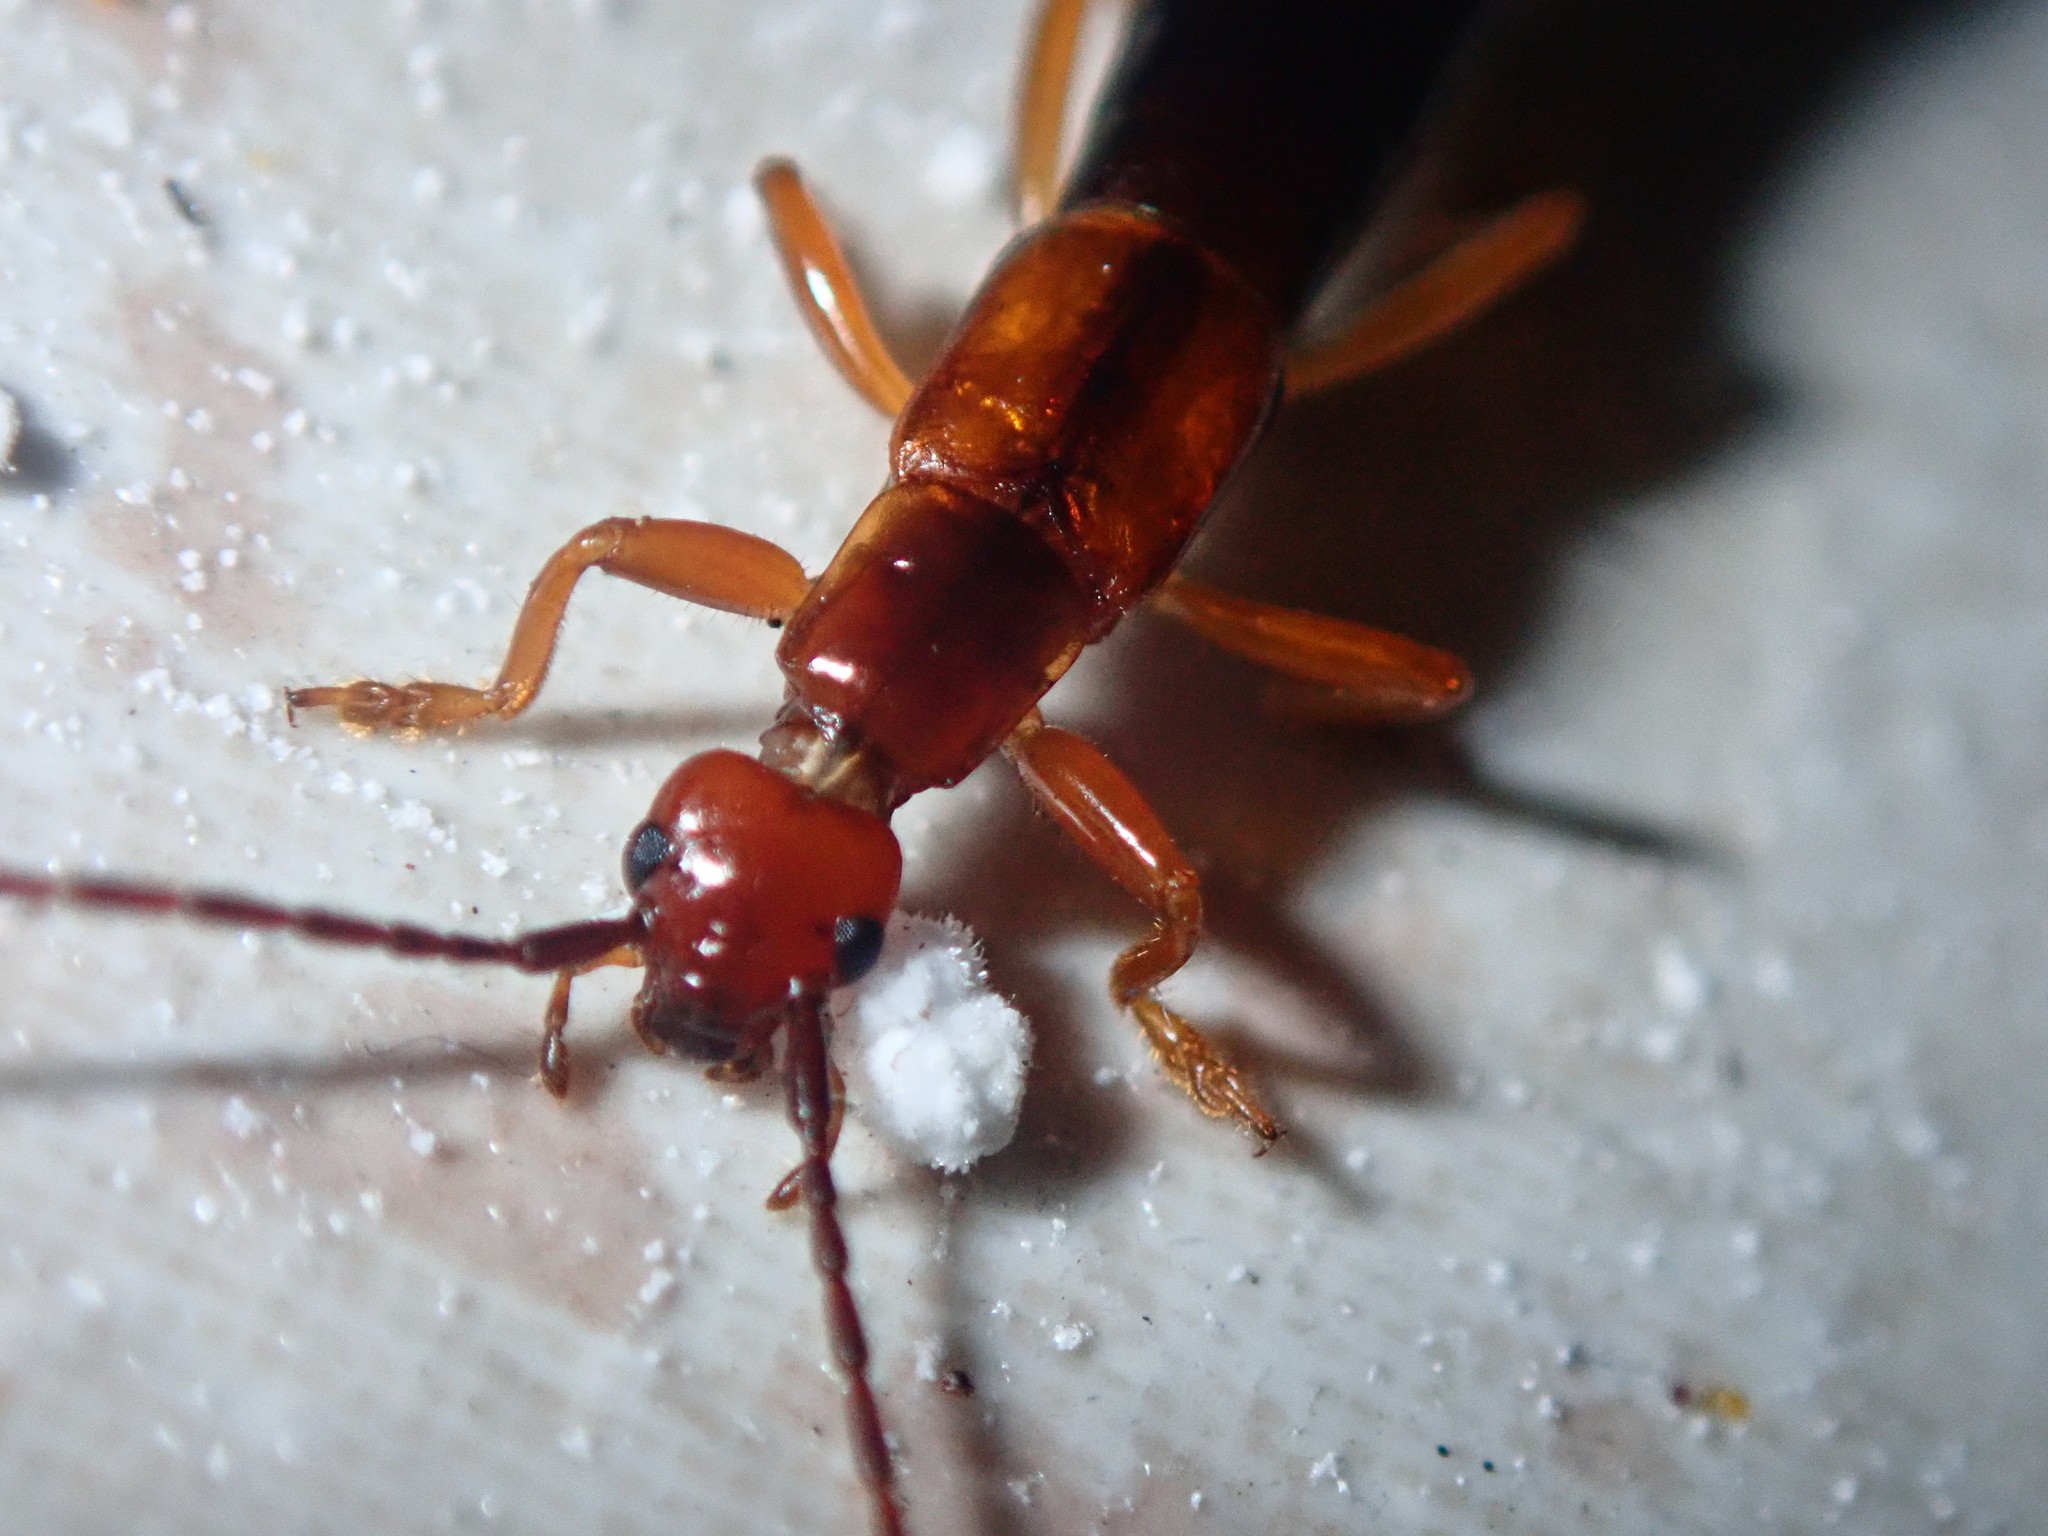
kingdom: Animalia
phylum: Arthropoda
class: Insecta
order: Dermaptera
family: Forficulidae
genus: Doru
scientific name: Doru gracilis
